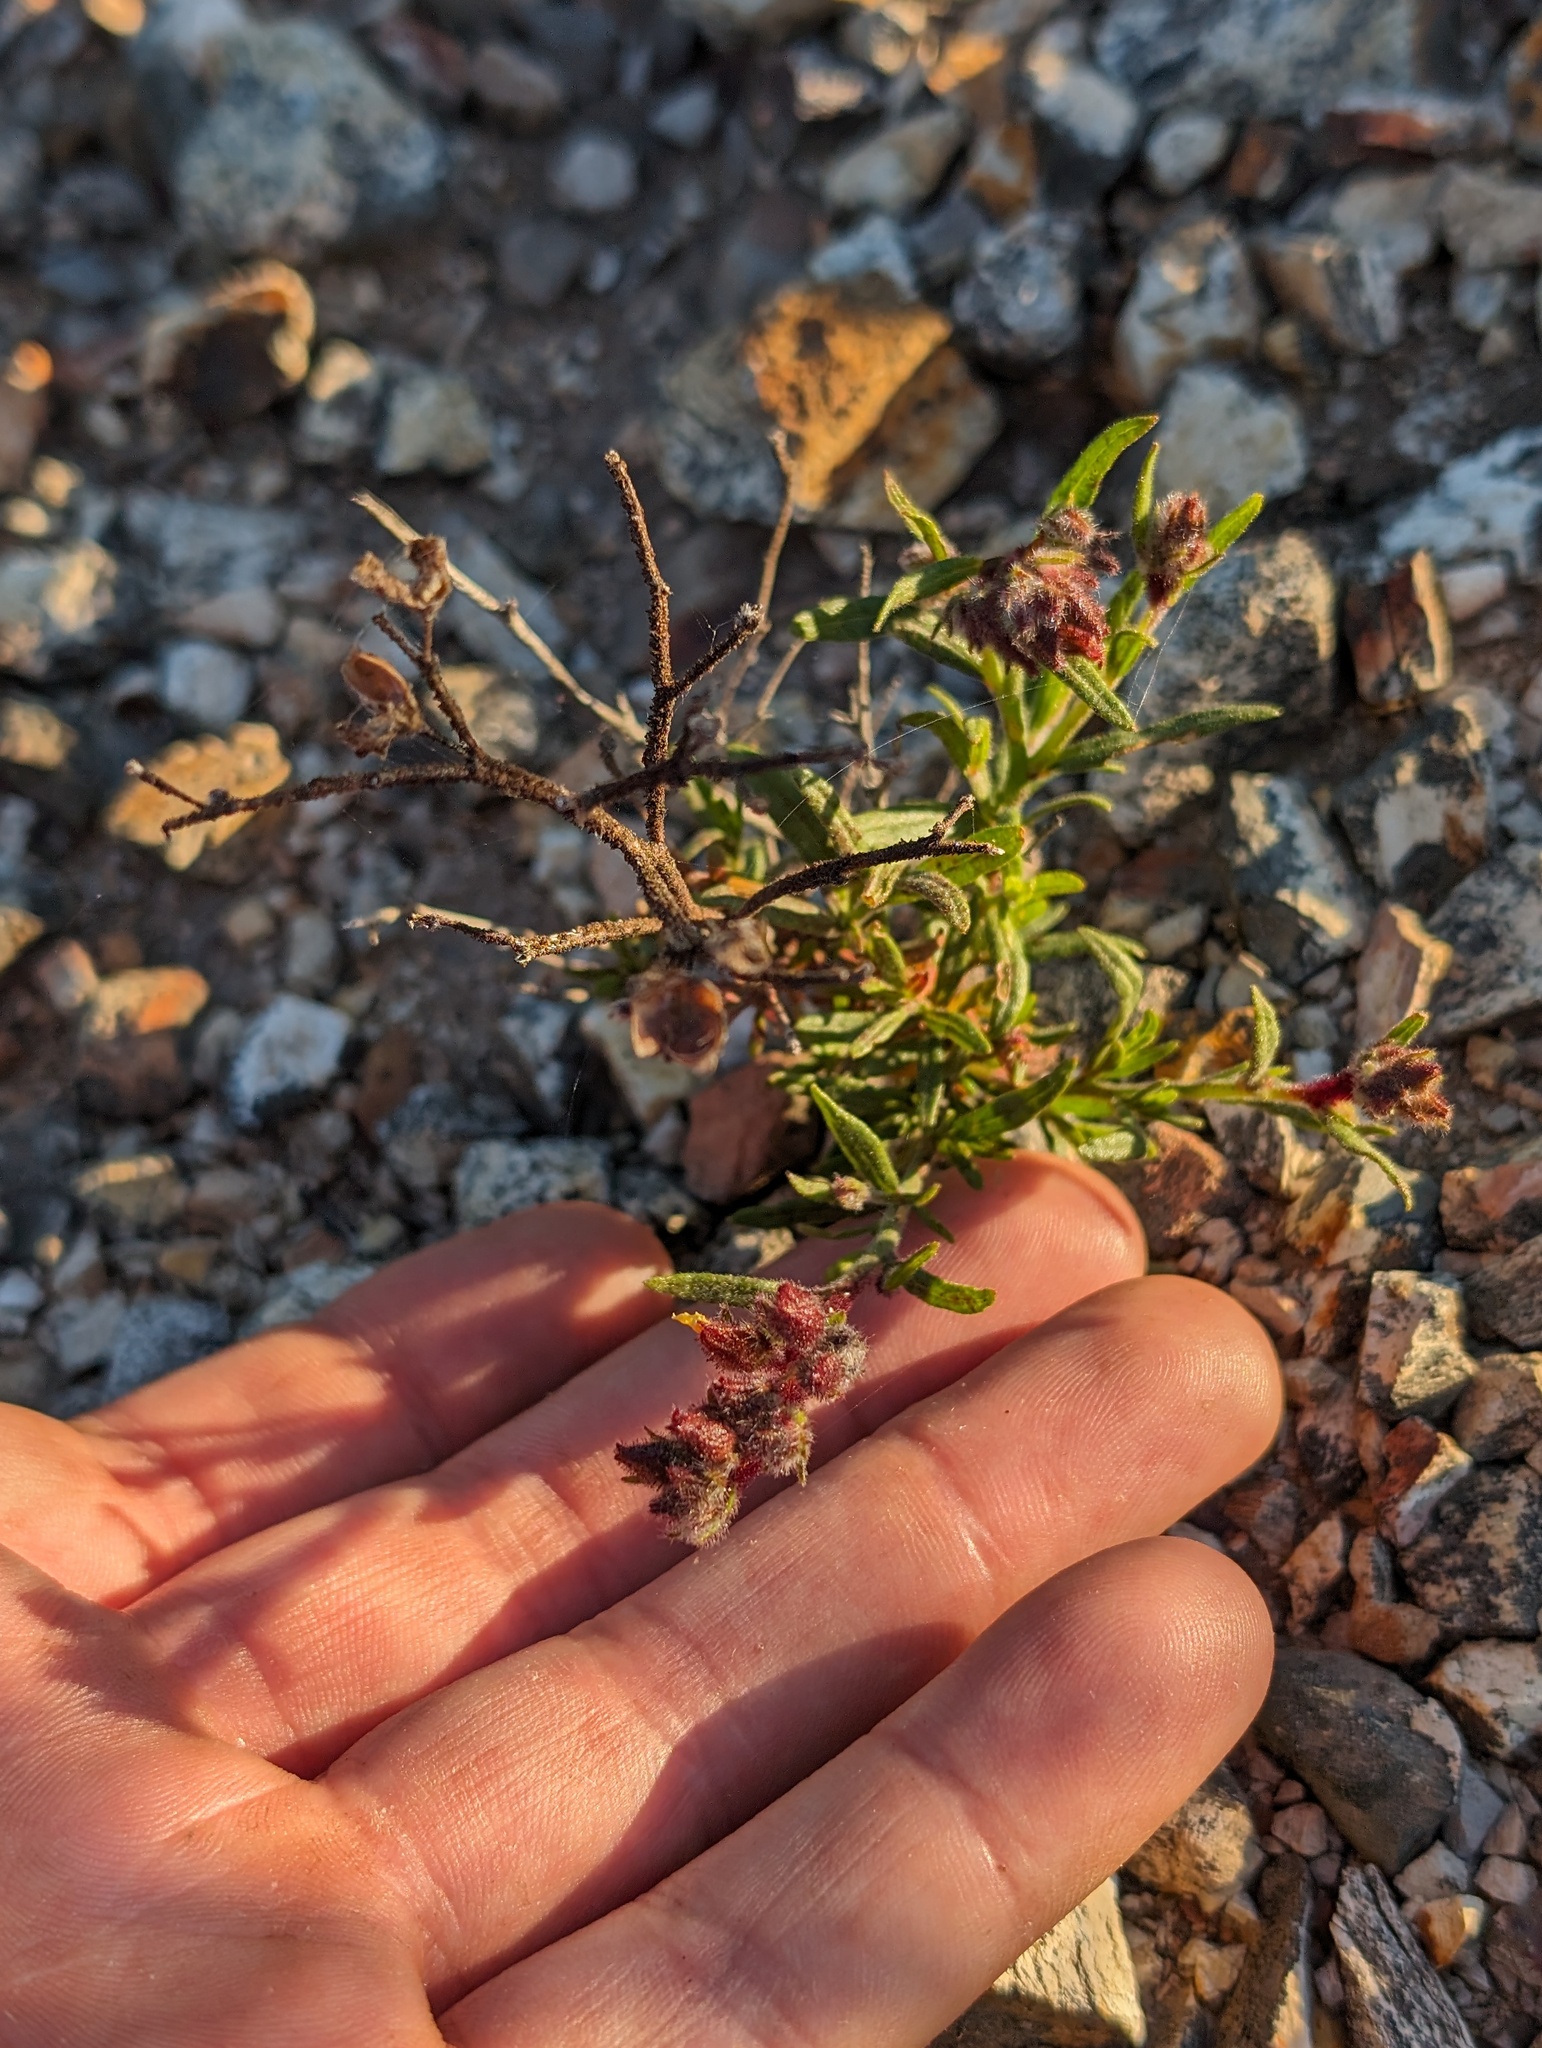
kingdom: Plantae
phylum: Tracheophyta
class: Magnoliopsida
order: Malvales
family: Cistaceae
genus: Crocanthemum
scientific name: Crocanthemum greenei
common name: Island rush-rose
